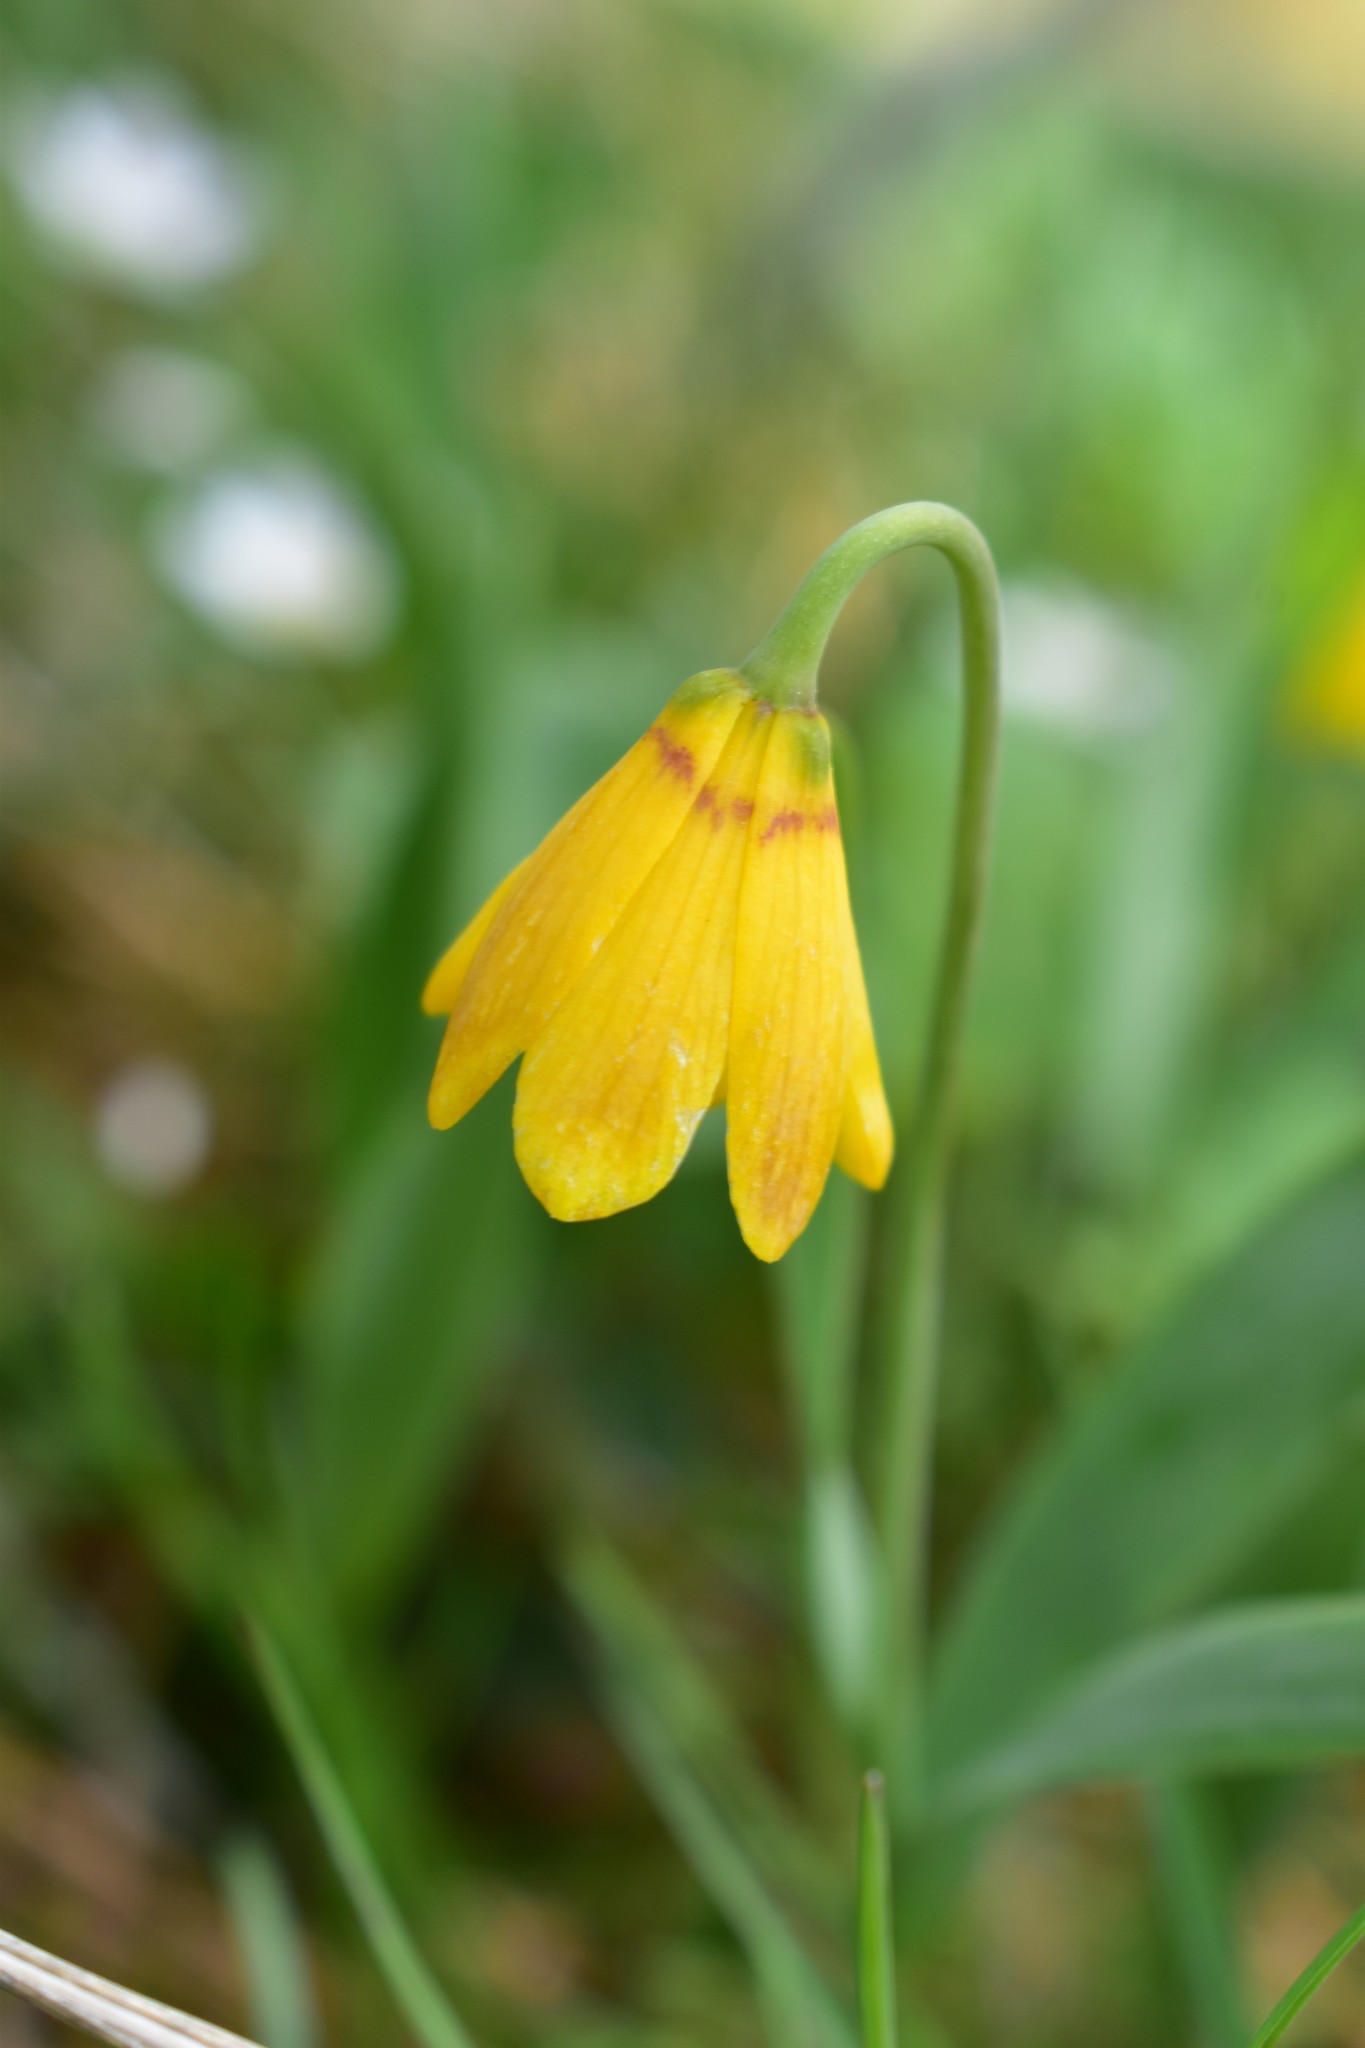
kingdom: Plantae
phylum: Tracheophyta
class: Liliopsida
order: Liliales
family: Liliaceae
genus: Fritillaria
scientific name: Fritillaria pudica
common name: Yellow fritillary
